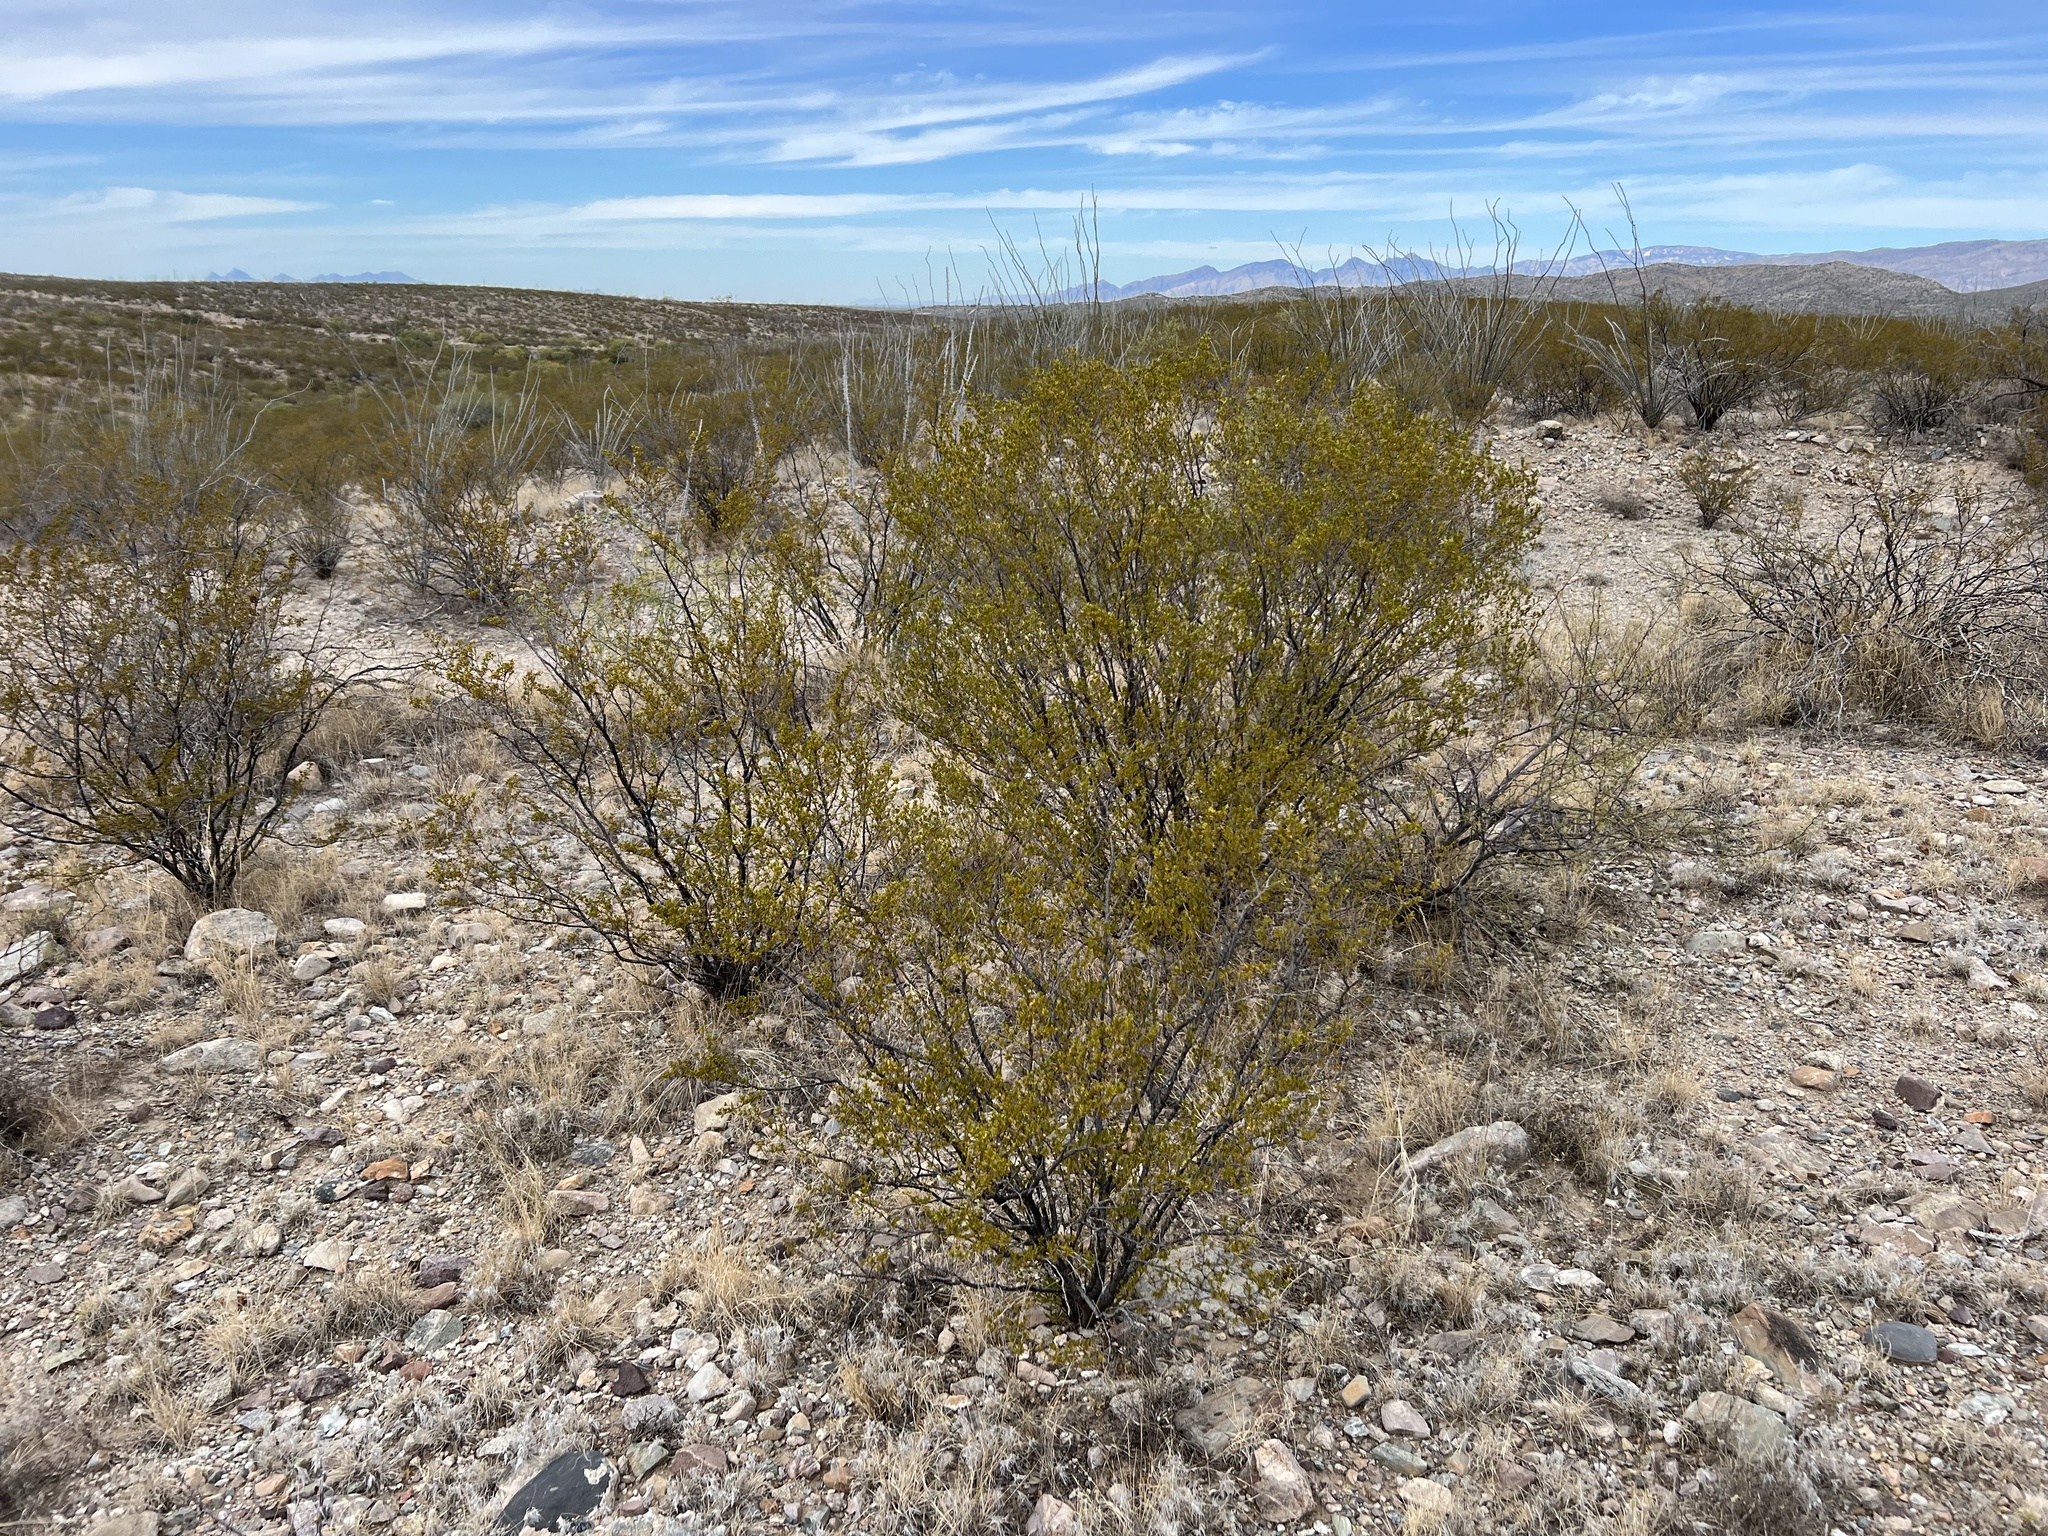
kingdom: Plantae
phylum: Tracheophyta
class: Magnoliopsida
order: Zygophyllales
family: Zygophyllaceae
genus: Larrea
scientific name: Larrea tridentata
